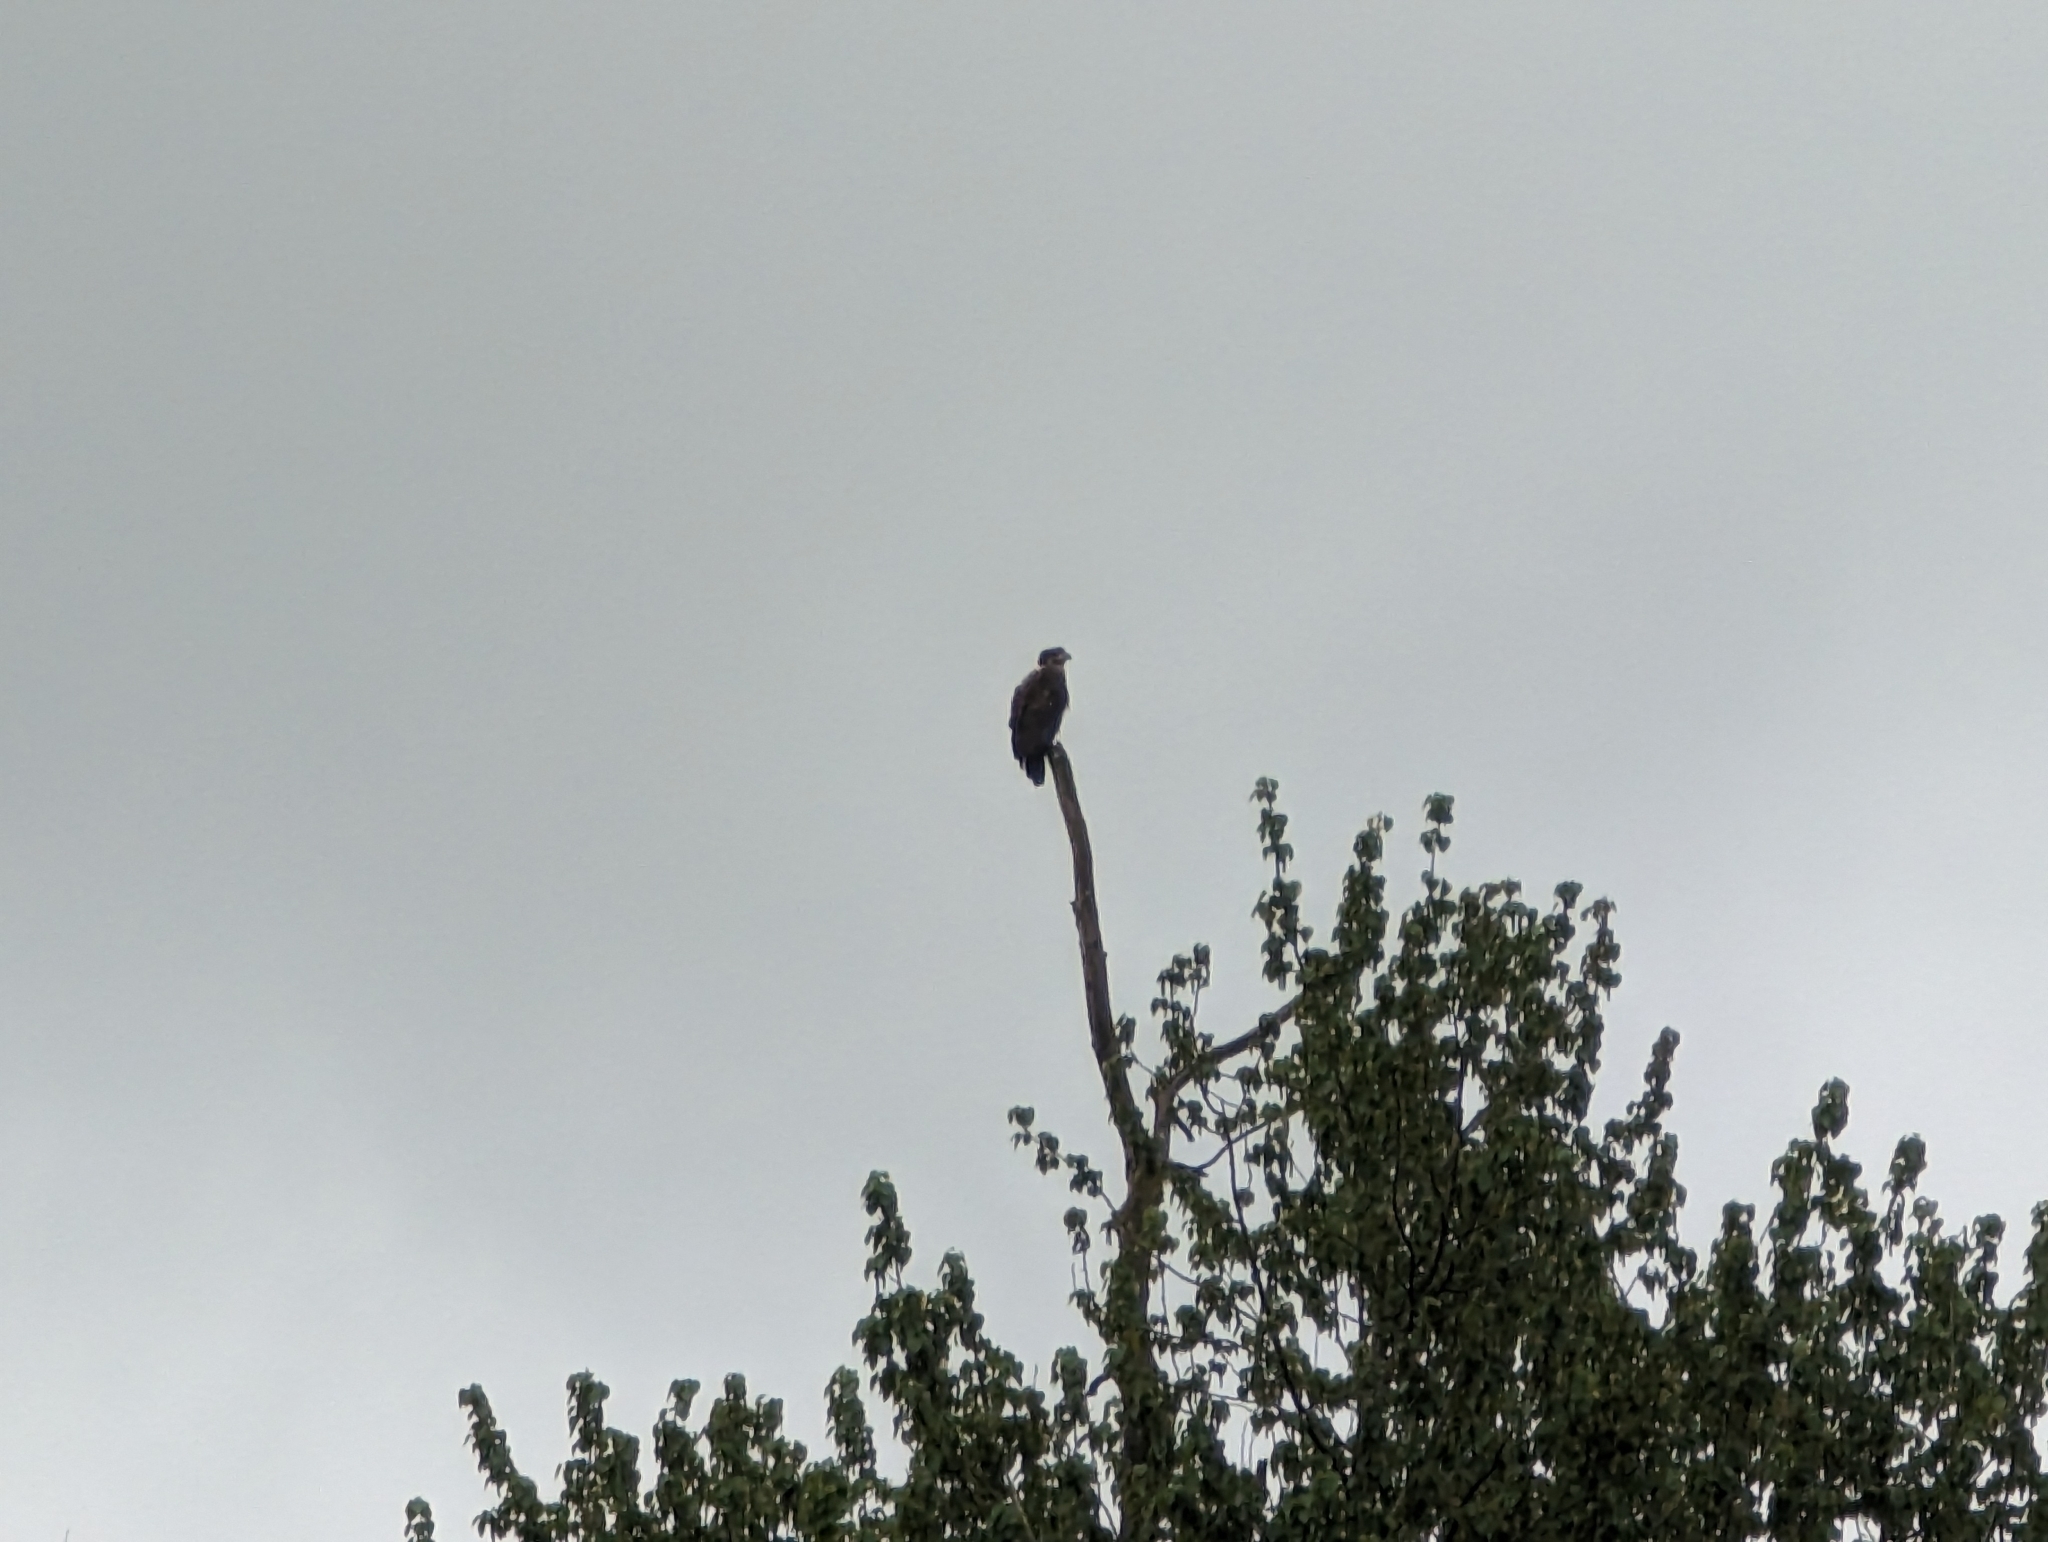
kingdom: Animalia
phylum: Chordata
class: Aves
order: Accipitriformes
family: Accipitridae
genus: Haliaeetus
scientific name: Haliaeetus leucocephalus
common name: Bald eagle
